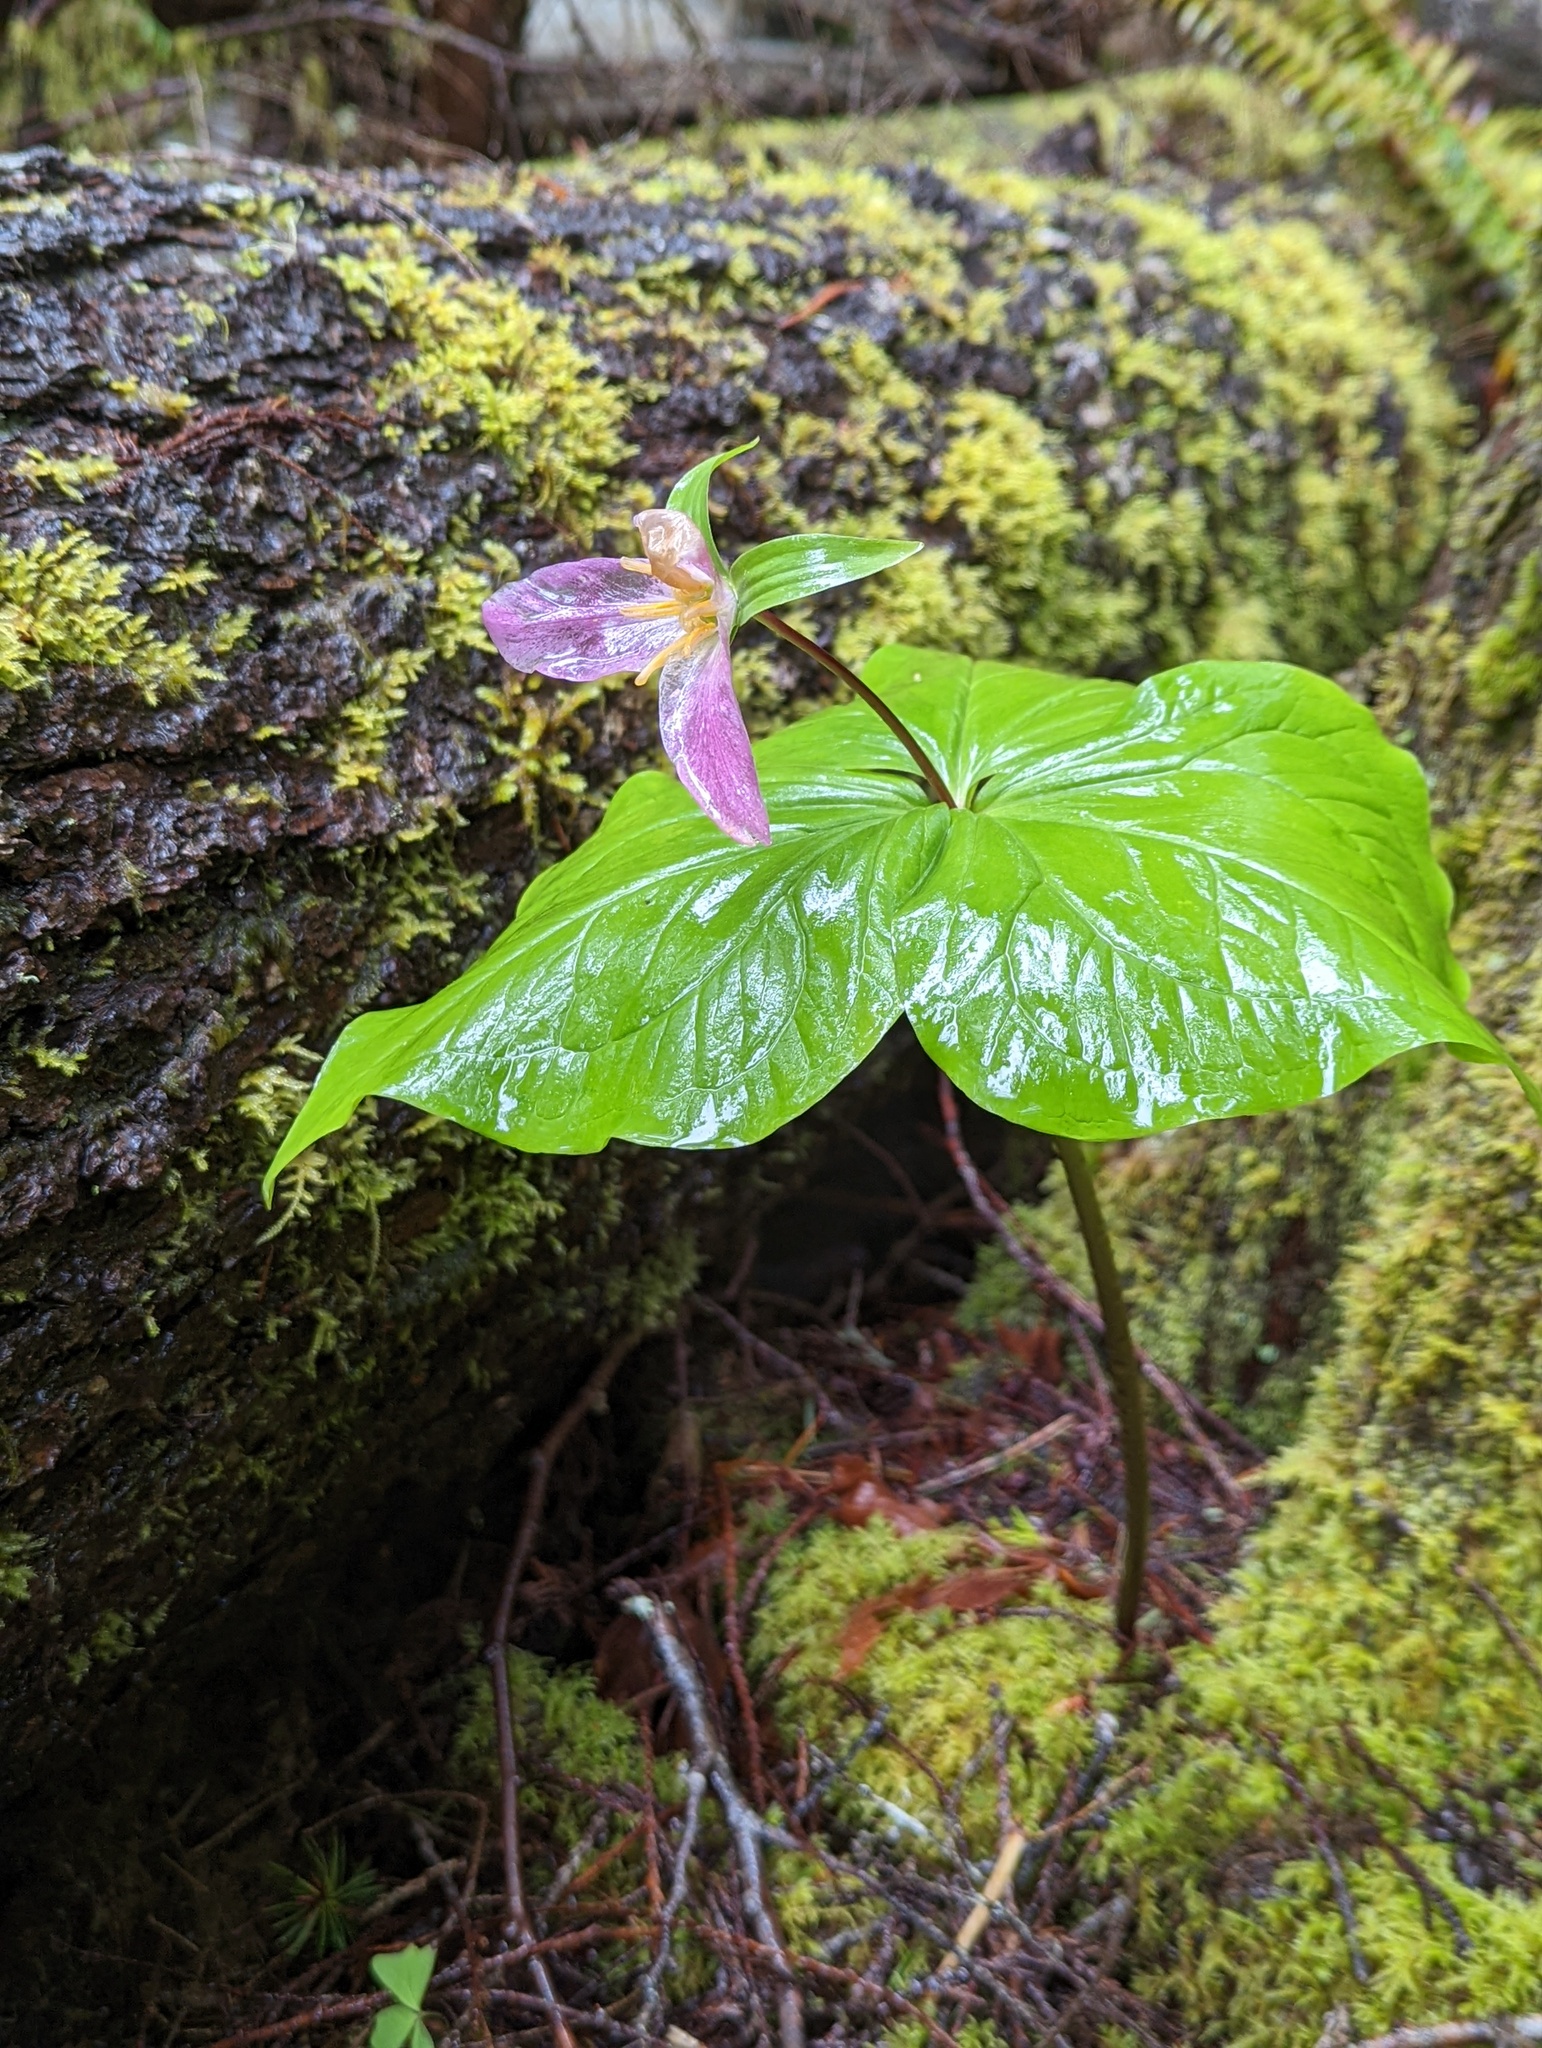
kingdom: Plantae
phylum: Tracheophyta
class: Liliopsida
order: Liliales
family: Melanthiaceae
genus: Trillium
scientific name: Trillium ovatum
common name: Pacific trillium
